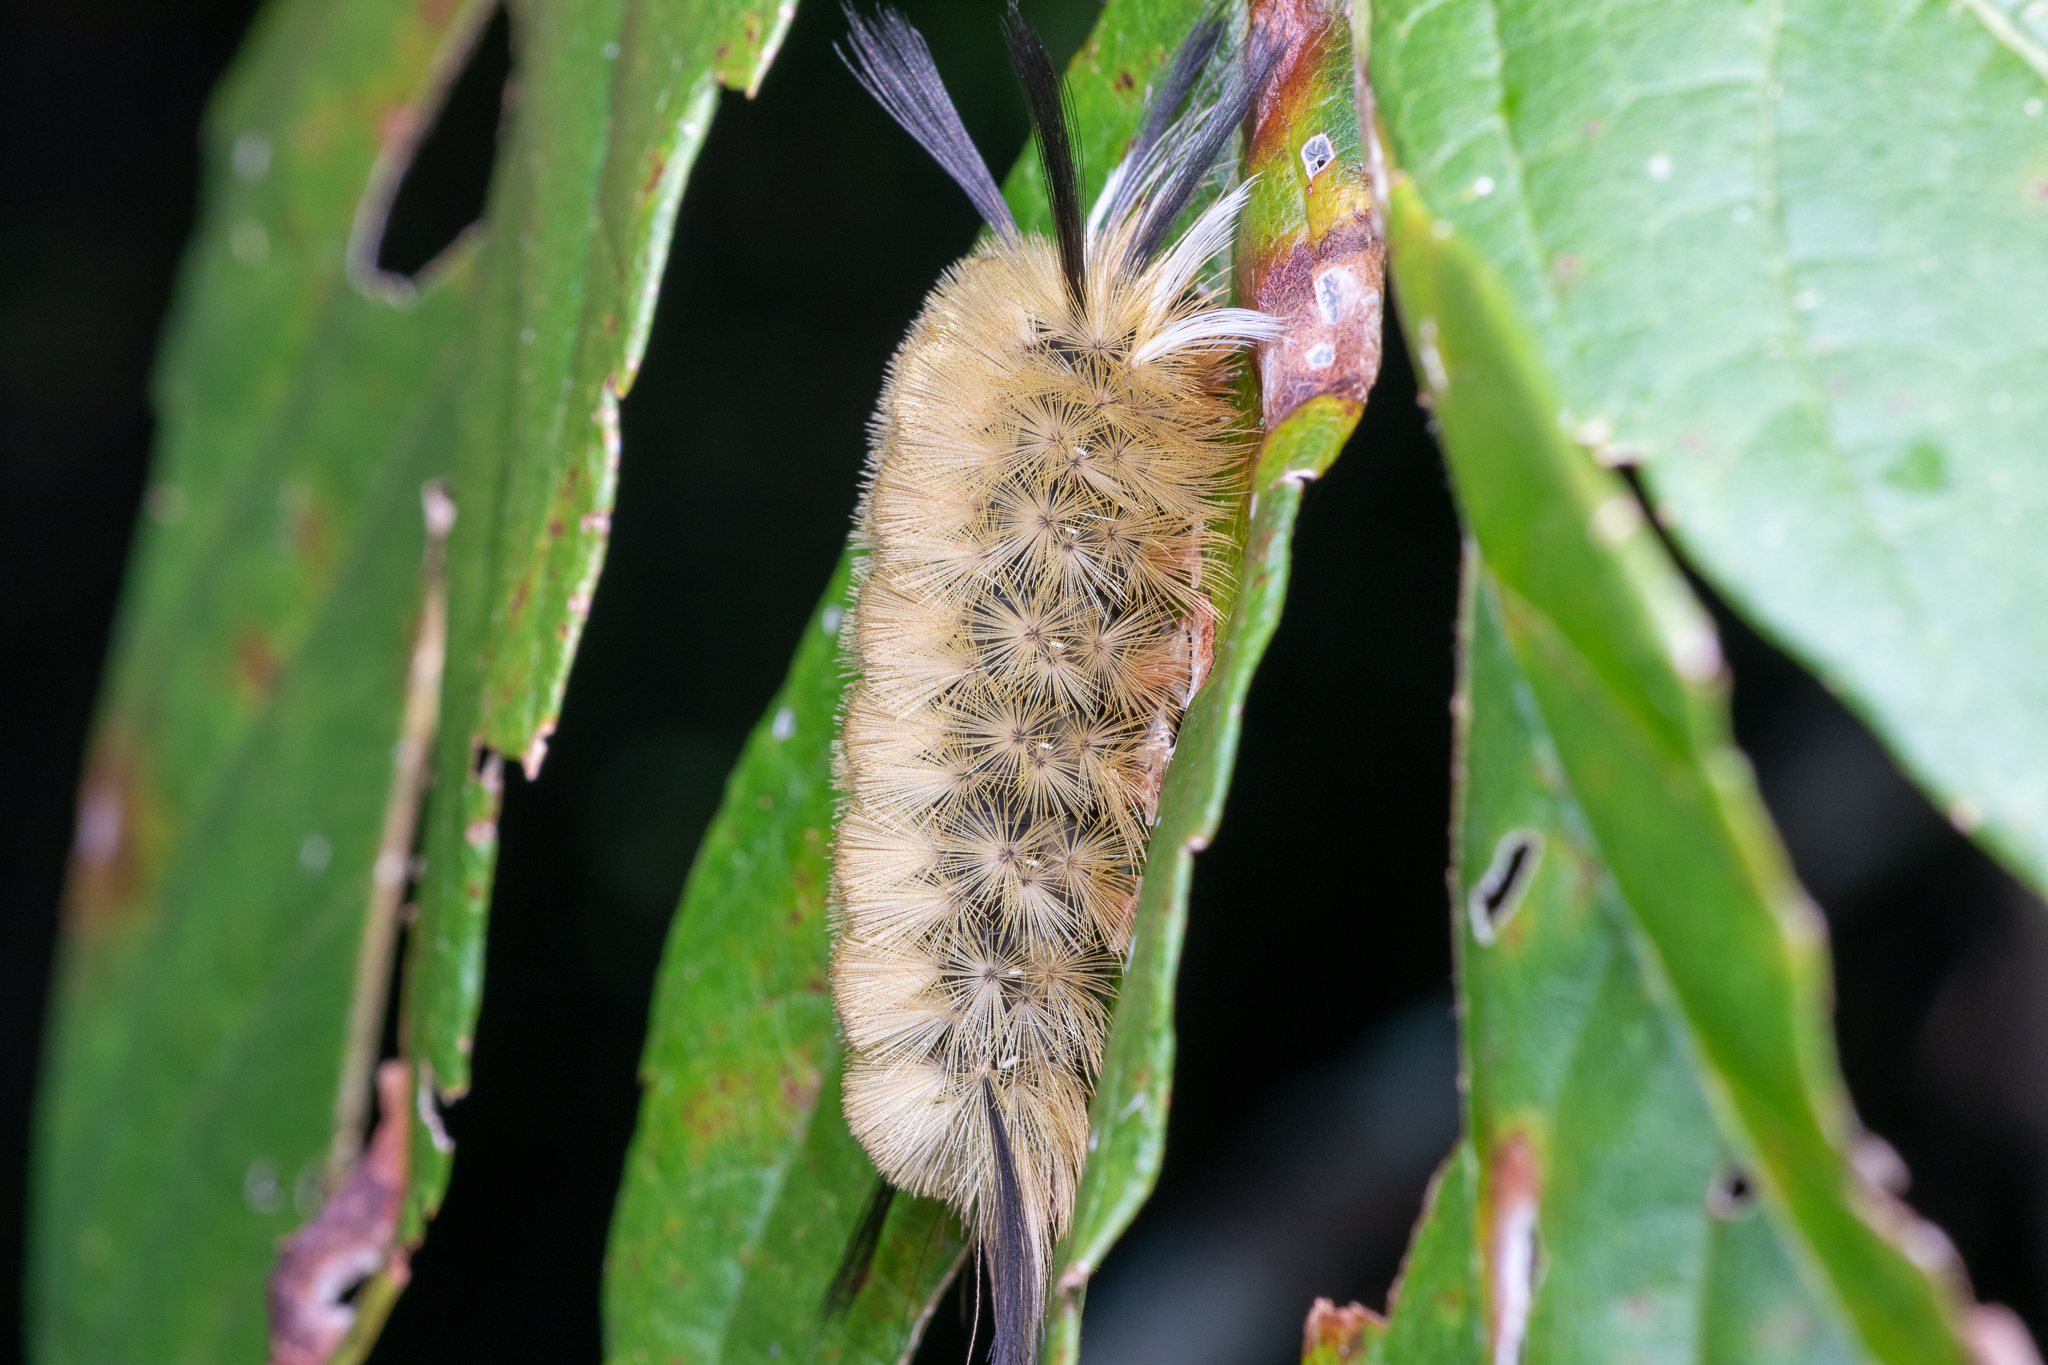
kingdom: Animalia
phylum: Arthropoda
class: Insecta
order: Lepidoptera
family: Erebidae
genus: Halysidota
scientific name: Halysidota tessellaris
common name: Banded tussock moth
